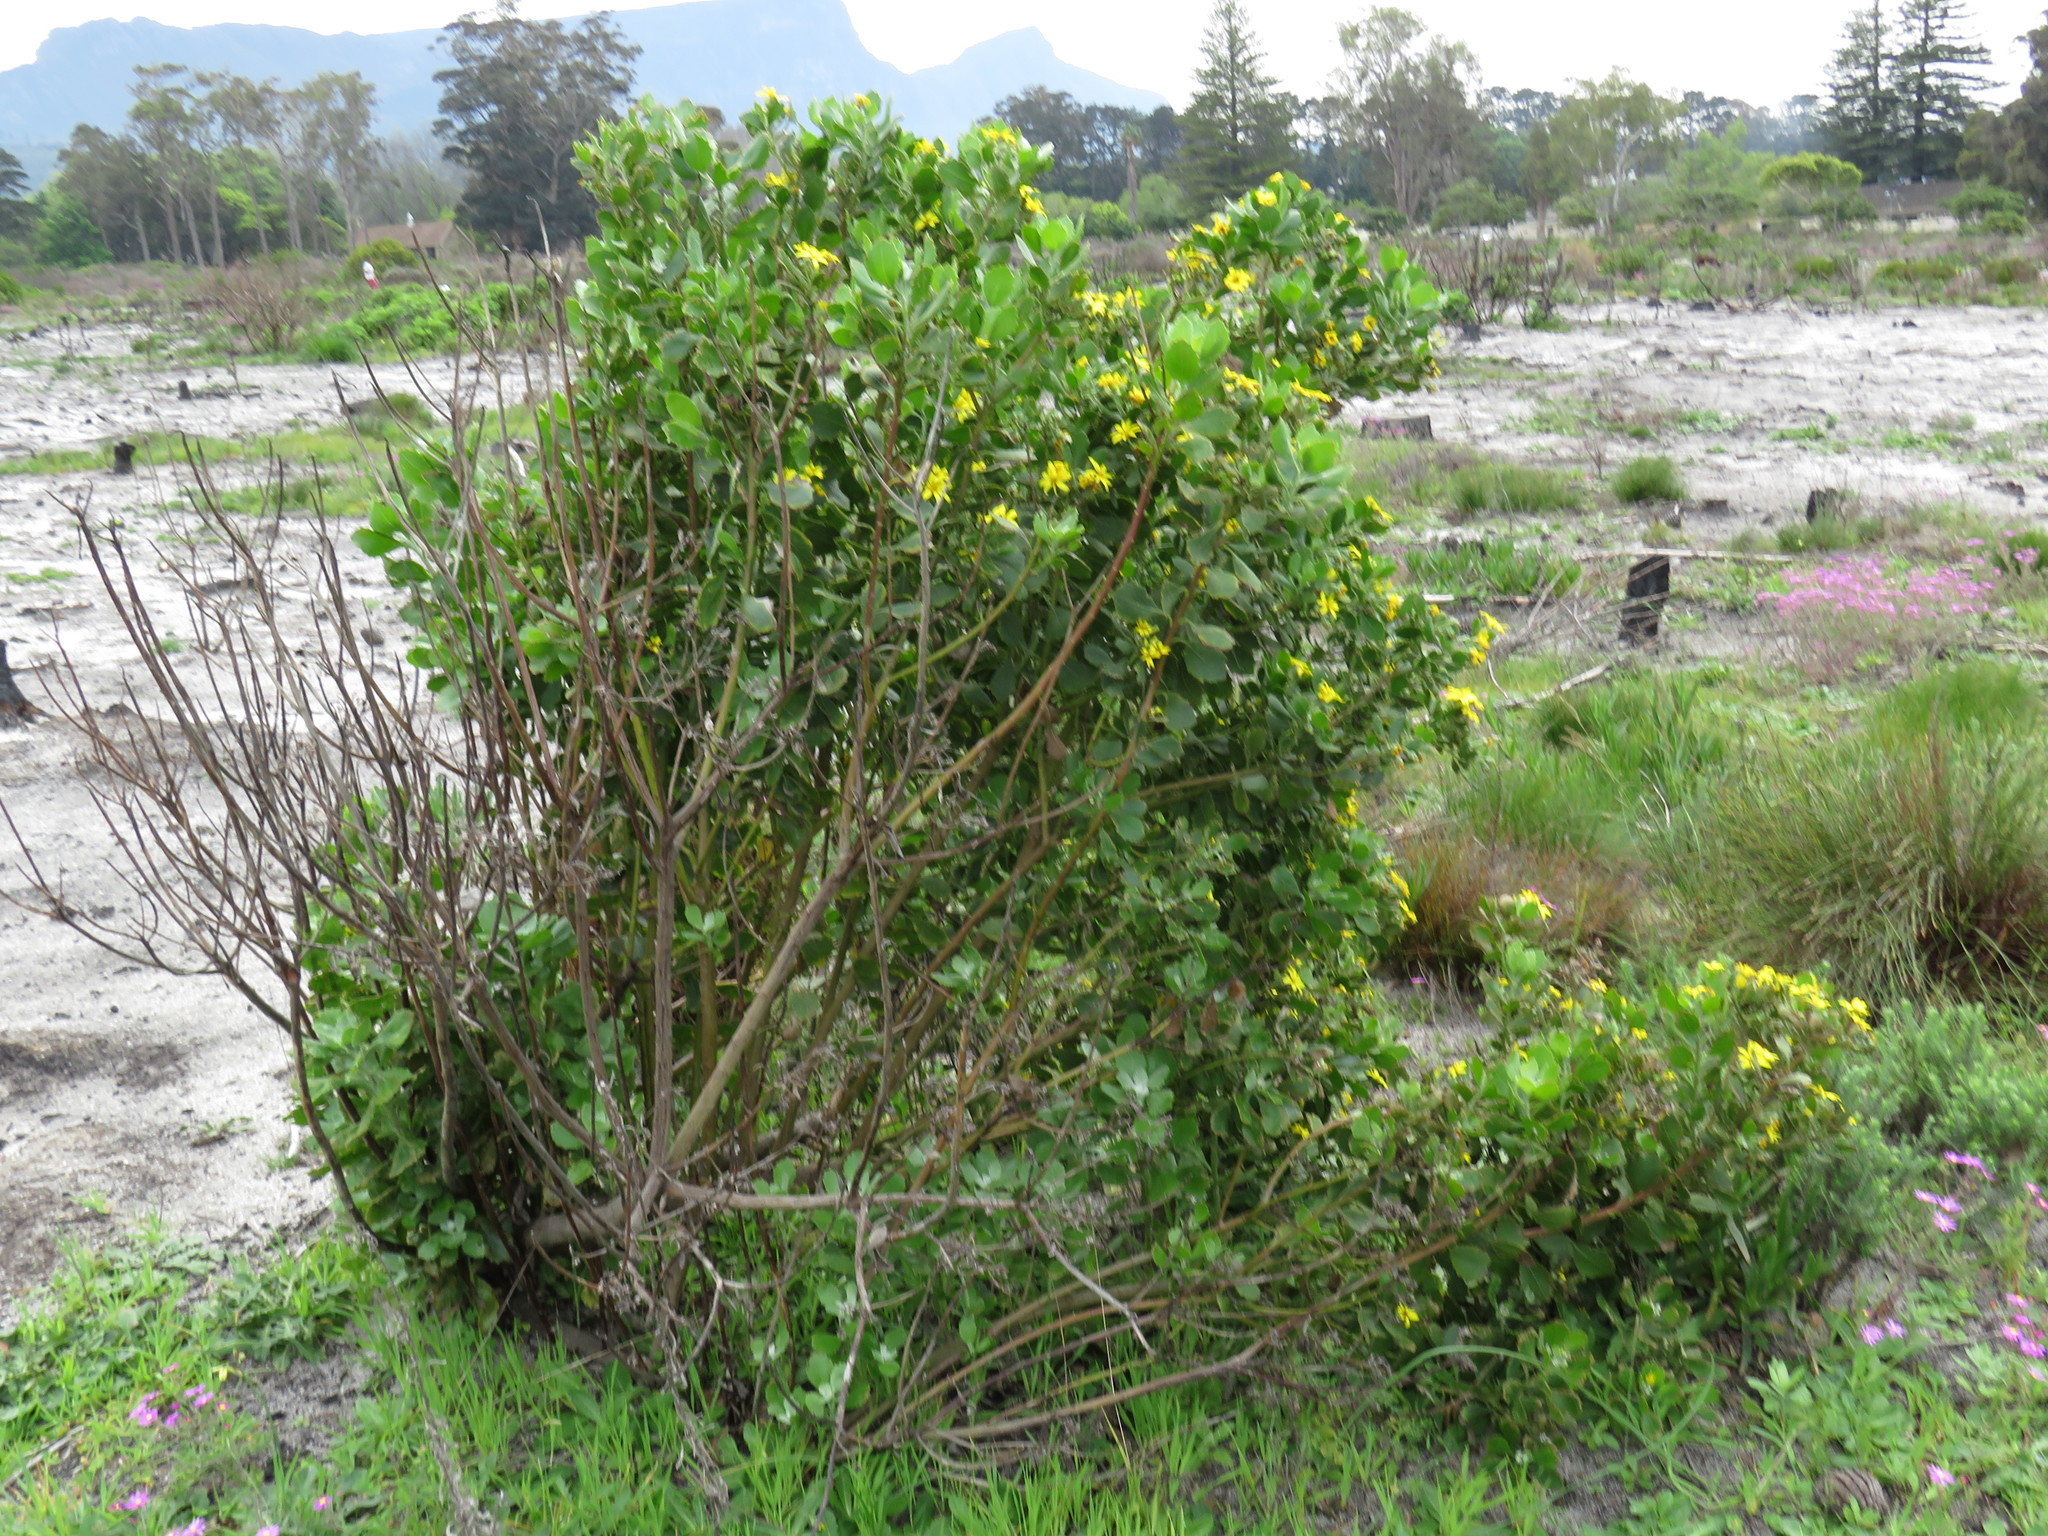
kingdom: Plantae
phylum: Tracheophyta
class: Magnoliopsida
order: Asterales
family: Asteraceae
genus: Osteospermum
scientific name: Osteospermum moniliferum
